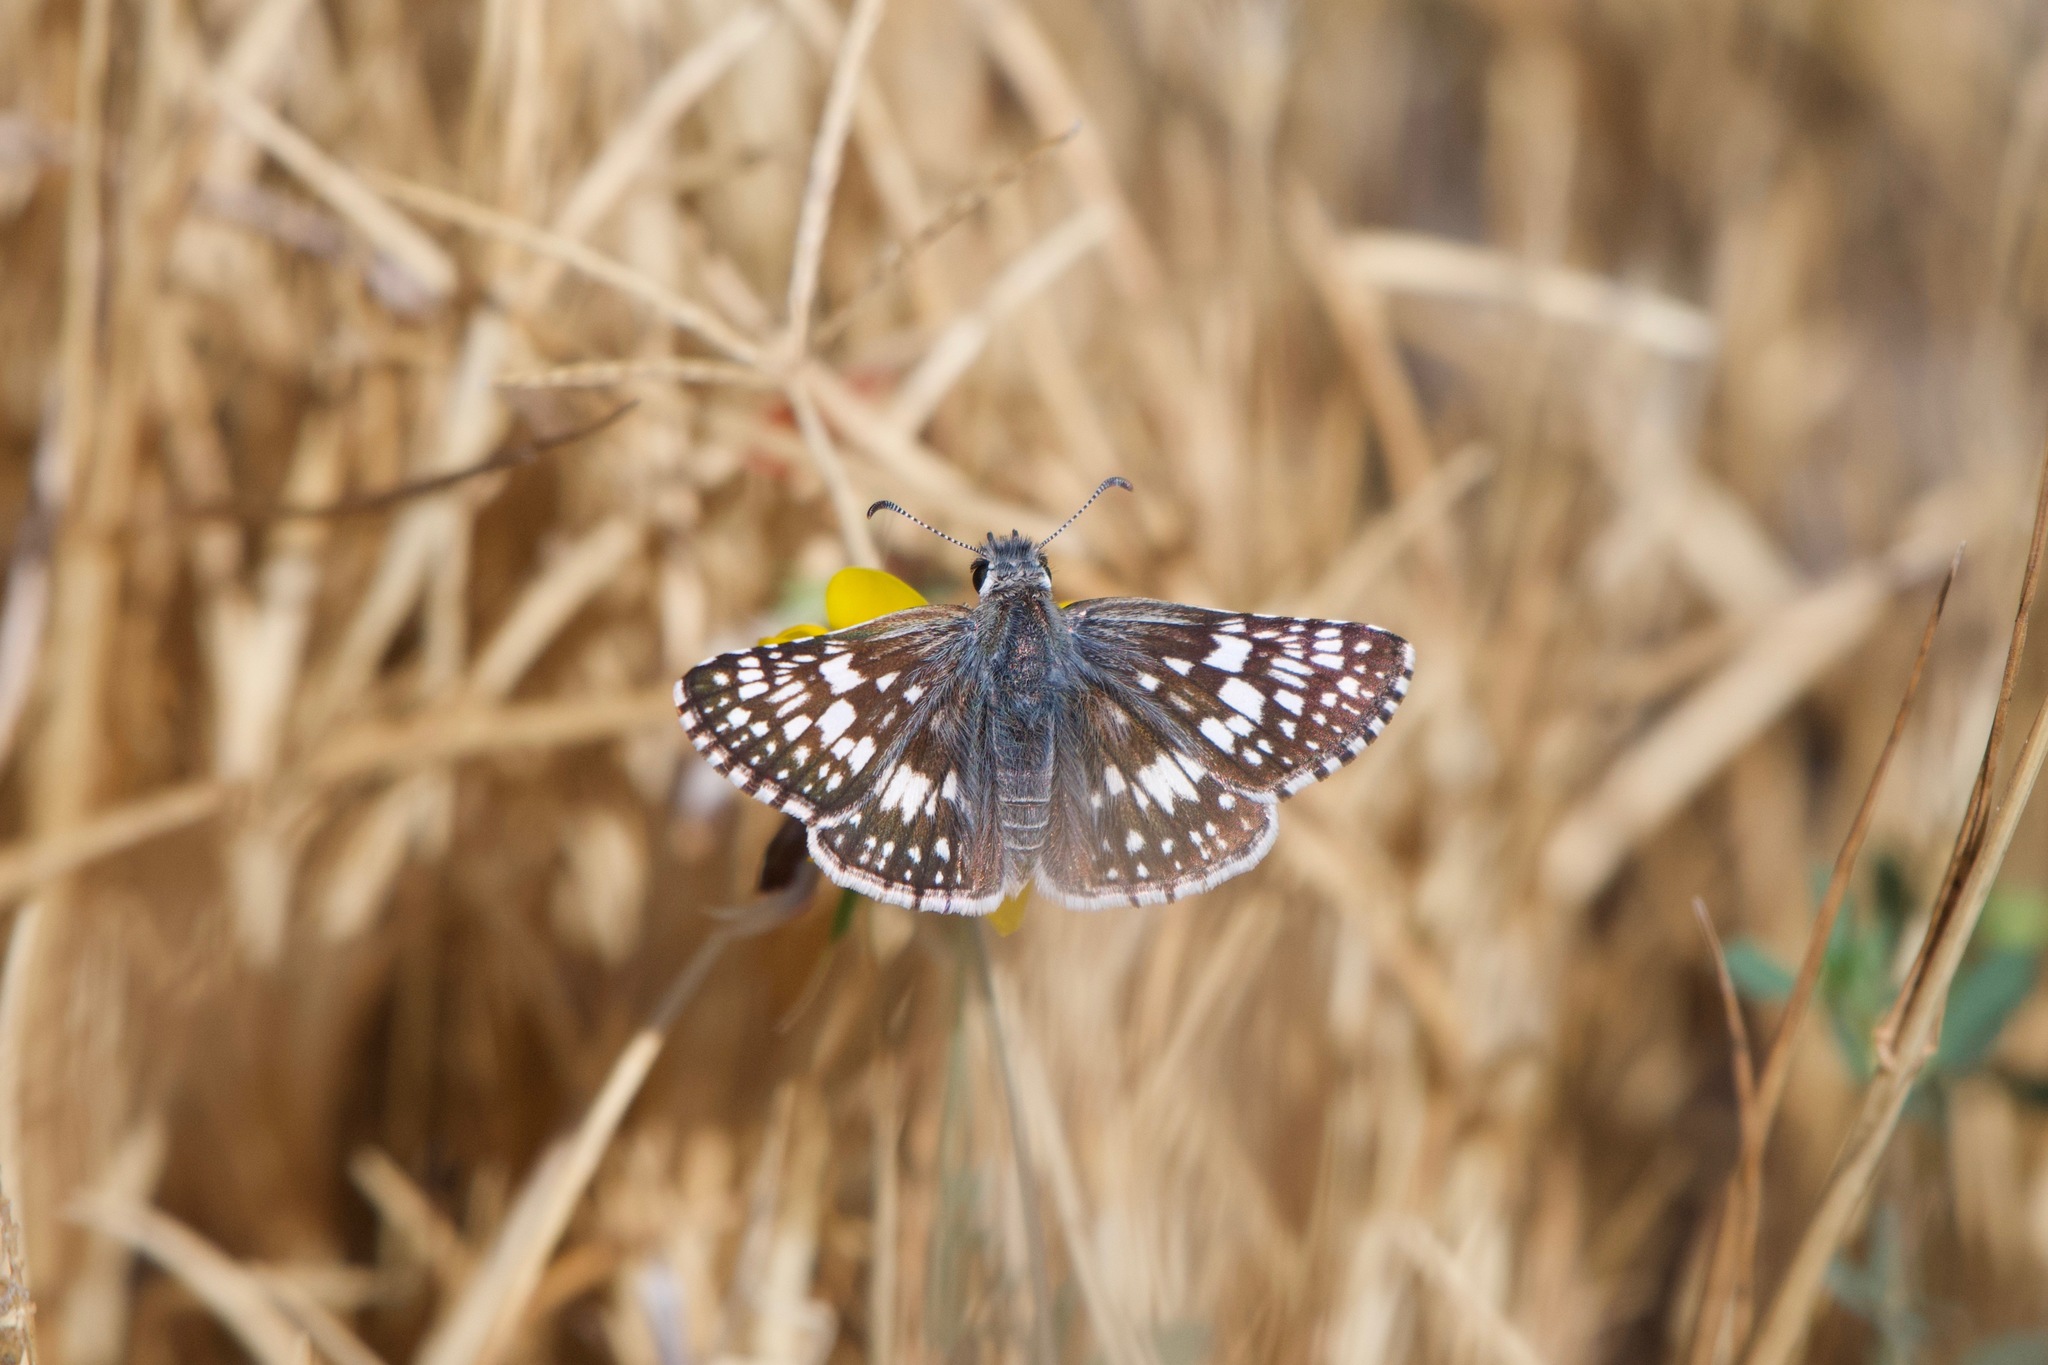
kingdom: Animalia
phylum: Arthropoda
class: Insecta
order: Lepidoptera
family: Hesperiidae
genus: Burnsius
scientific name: Burnsius communis
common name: Common checkered-skipper
